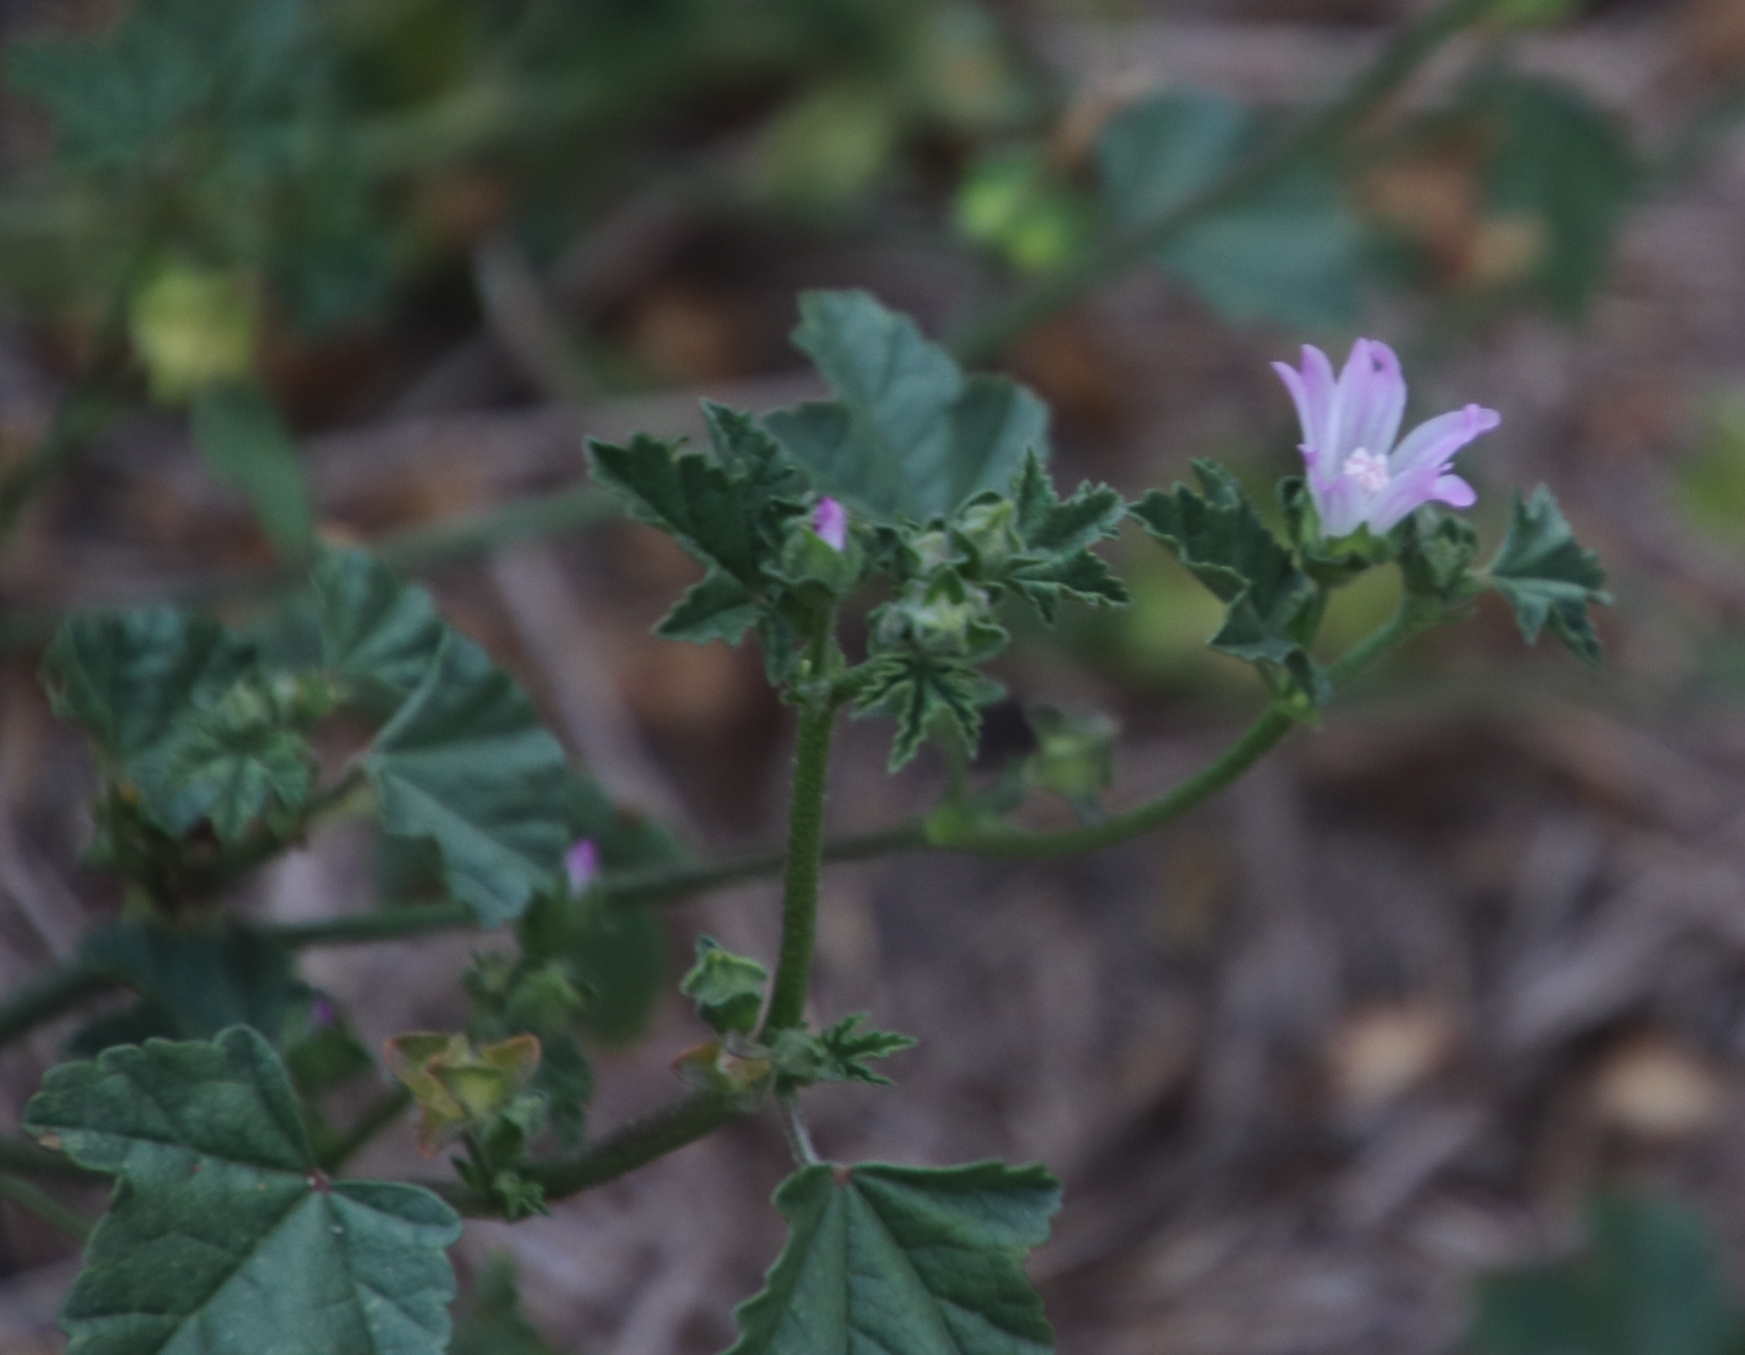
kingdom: Plantae
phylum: Tracheophyta
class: Magnoliopsida
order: Malvales
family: Malvaceae
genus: Malva
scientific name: Malva parviflora
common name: Least mallow
